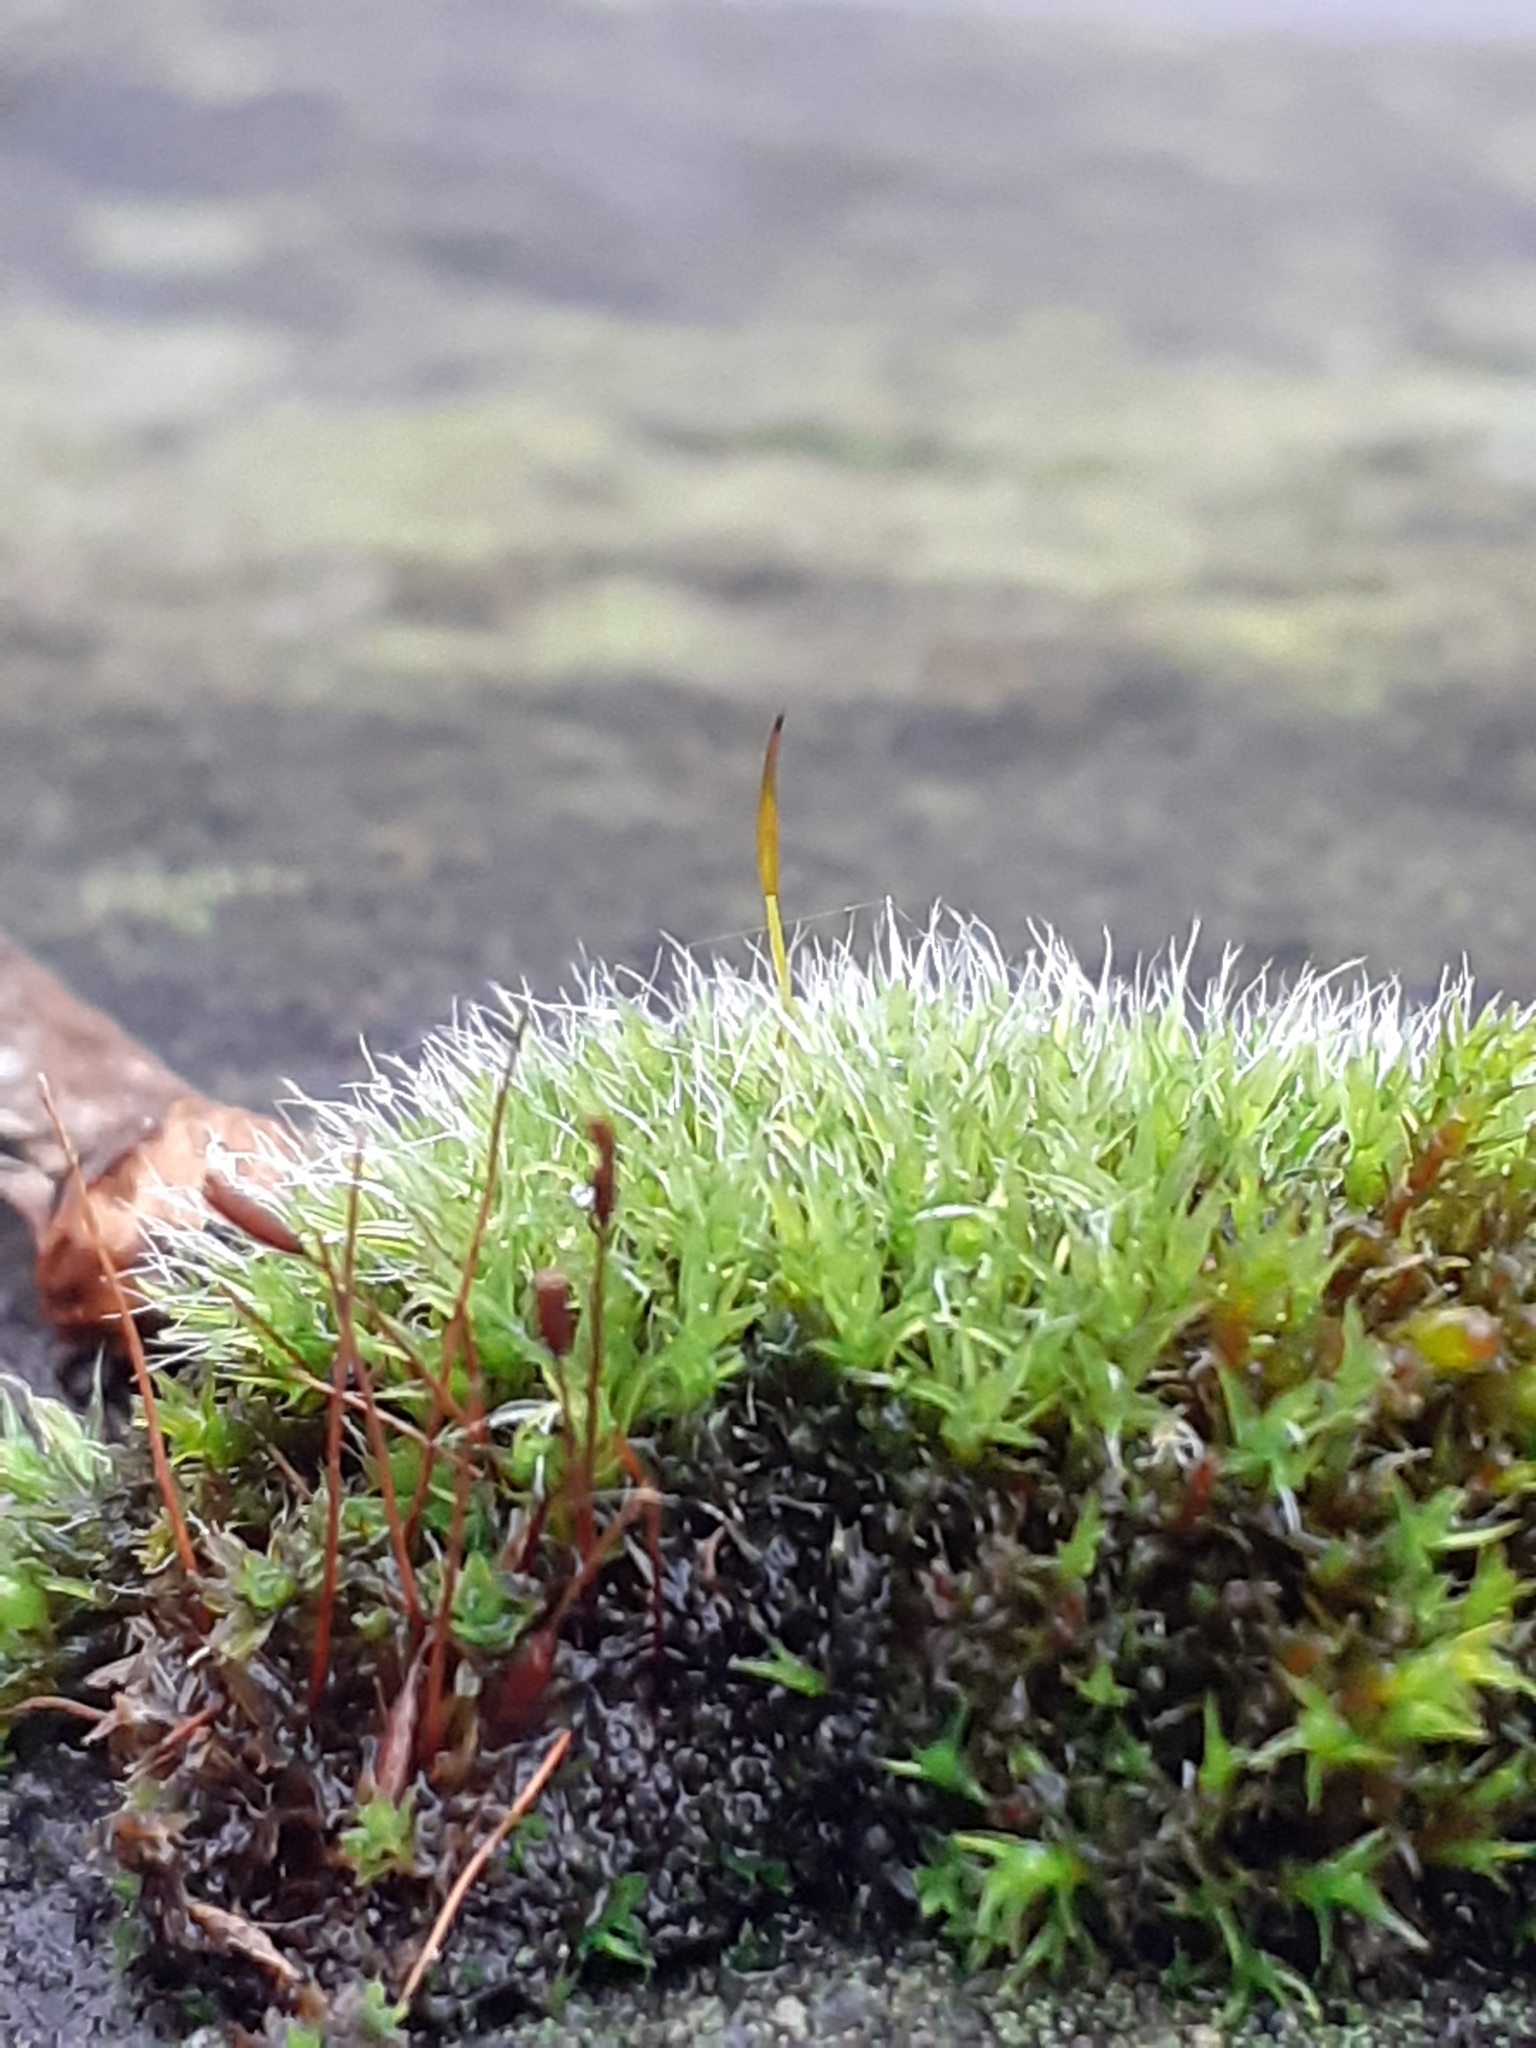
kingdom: Plantae
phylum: Bryophyta
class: Bryopsida
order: Pottiales
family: Pottiaceae
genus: Tortula
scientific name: Tortula muralis
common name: Wall screw-moss
